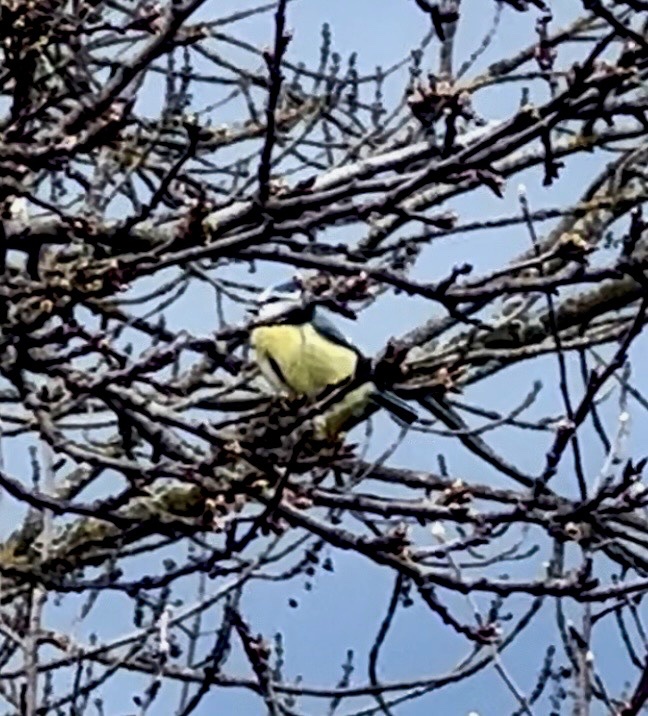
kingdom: Animalia
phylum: Chordata
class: Aves
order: Passeriformes
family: Paridae
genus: Cyanistes
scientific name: Cyanistes caeruleus
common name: Eurasian blue tit
